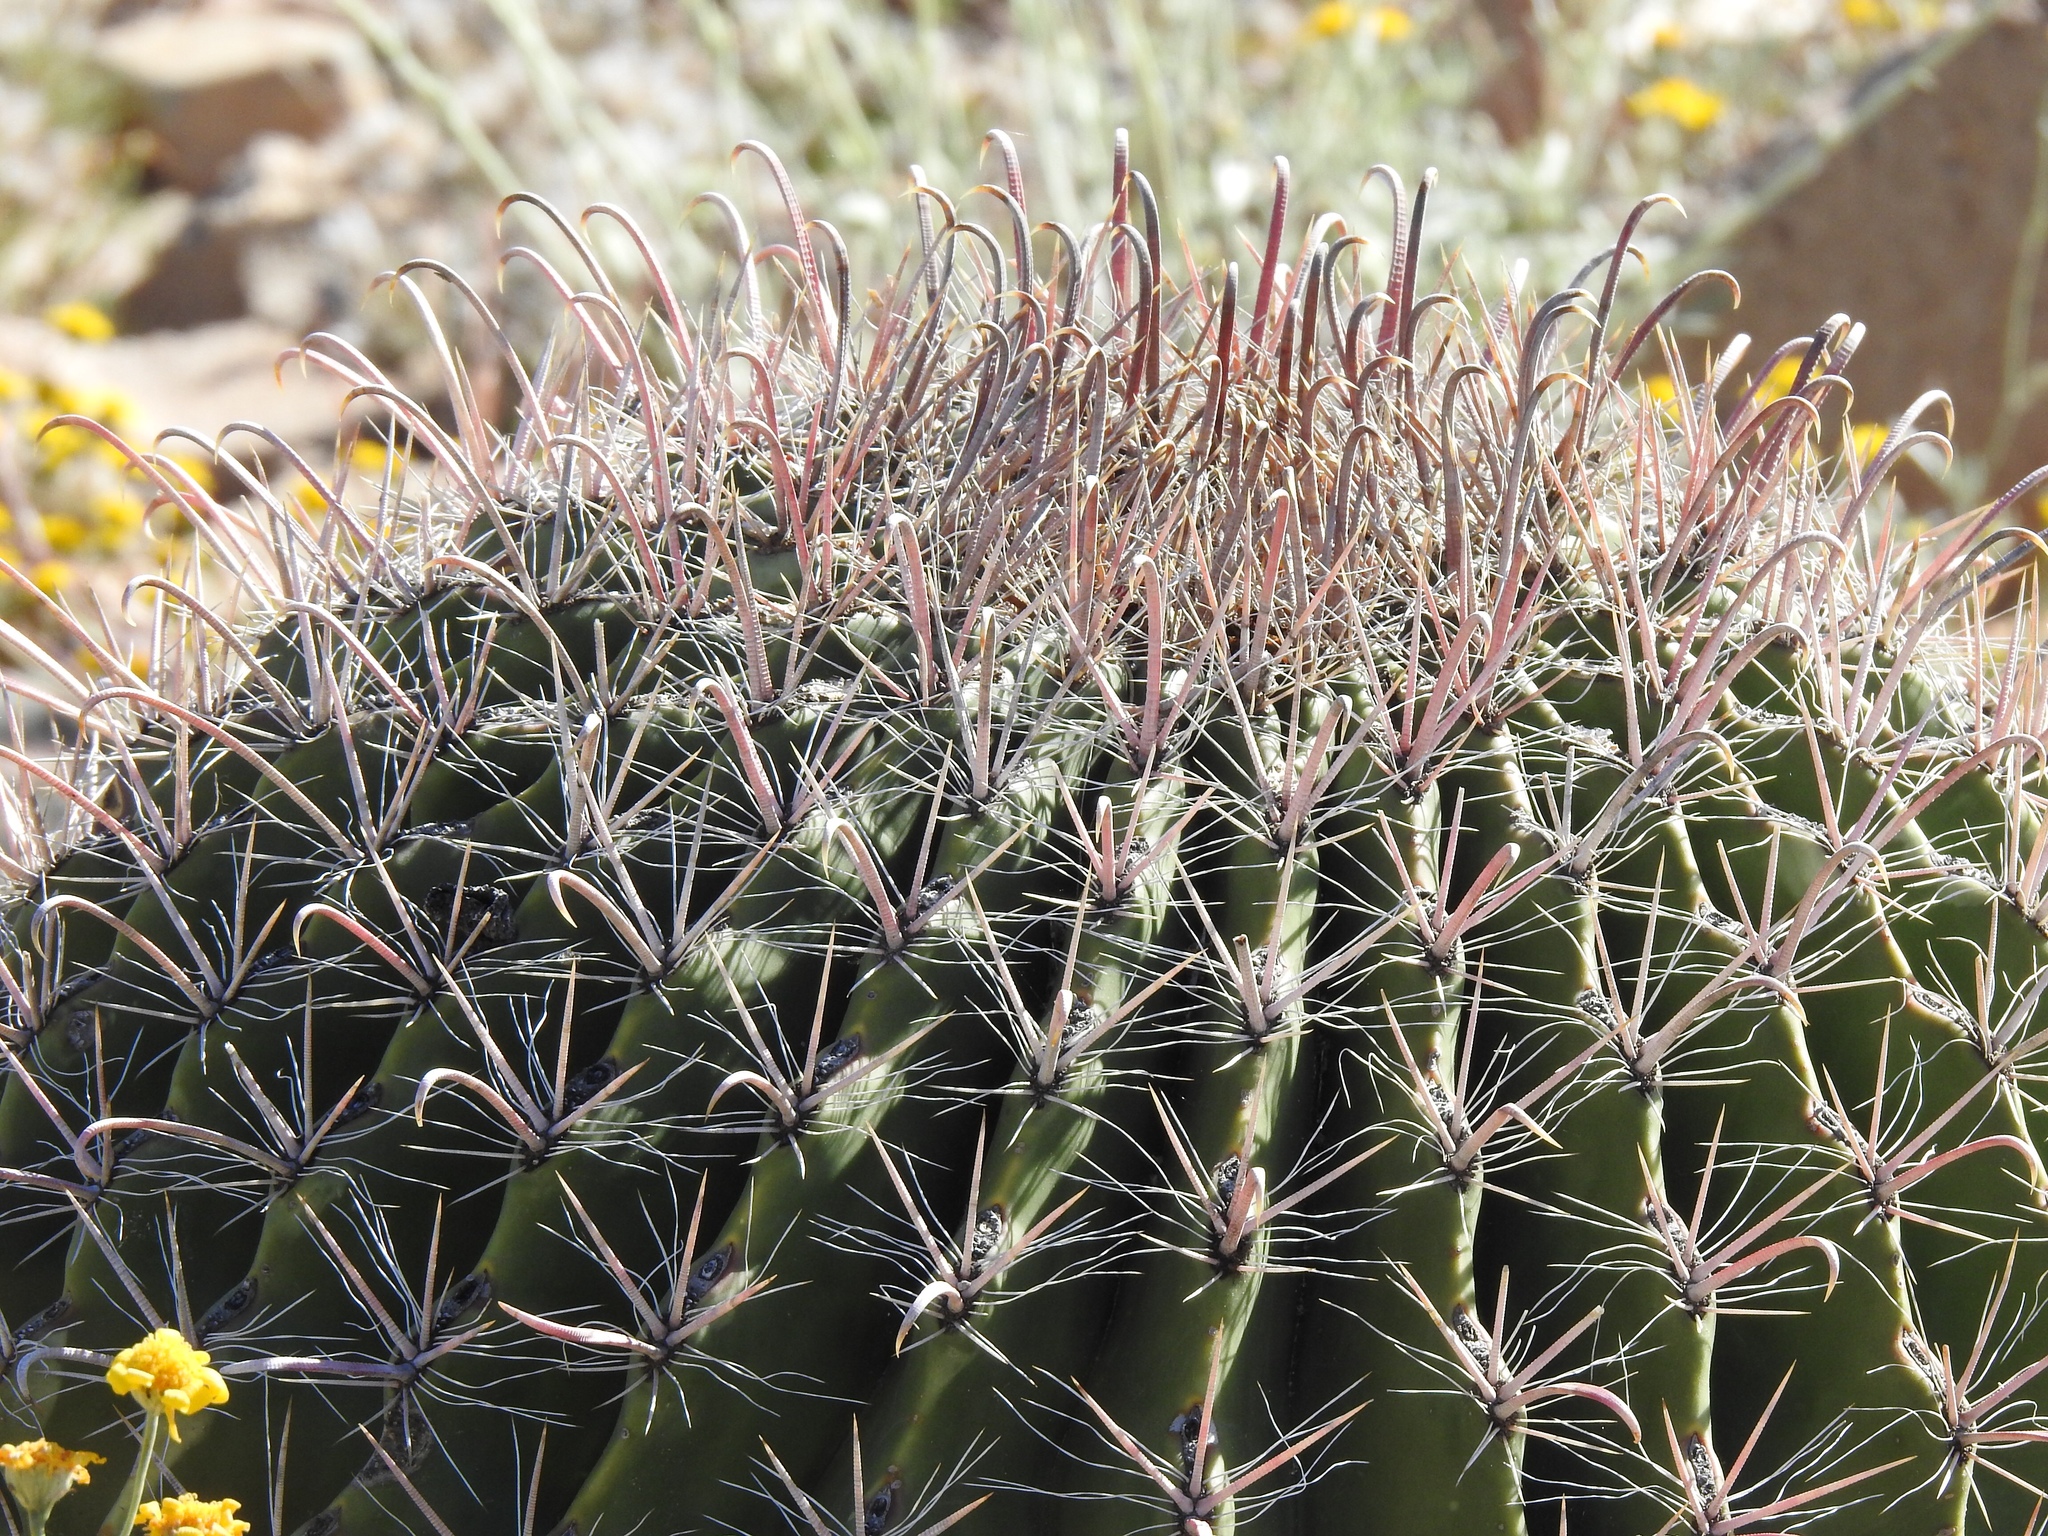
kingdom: Plantae
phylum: Tracheophyta
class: Magnoliopsida
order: Caryophyllales
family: Cactaceae
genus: Ferocactus
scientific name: Ferocactus wislizeni
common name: Candy barrel cactus
